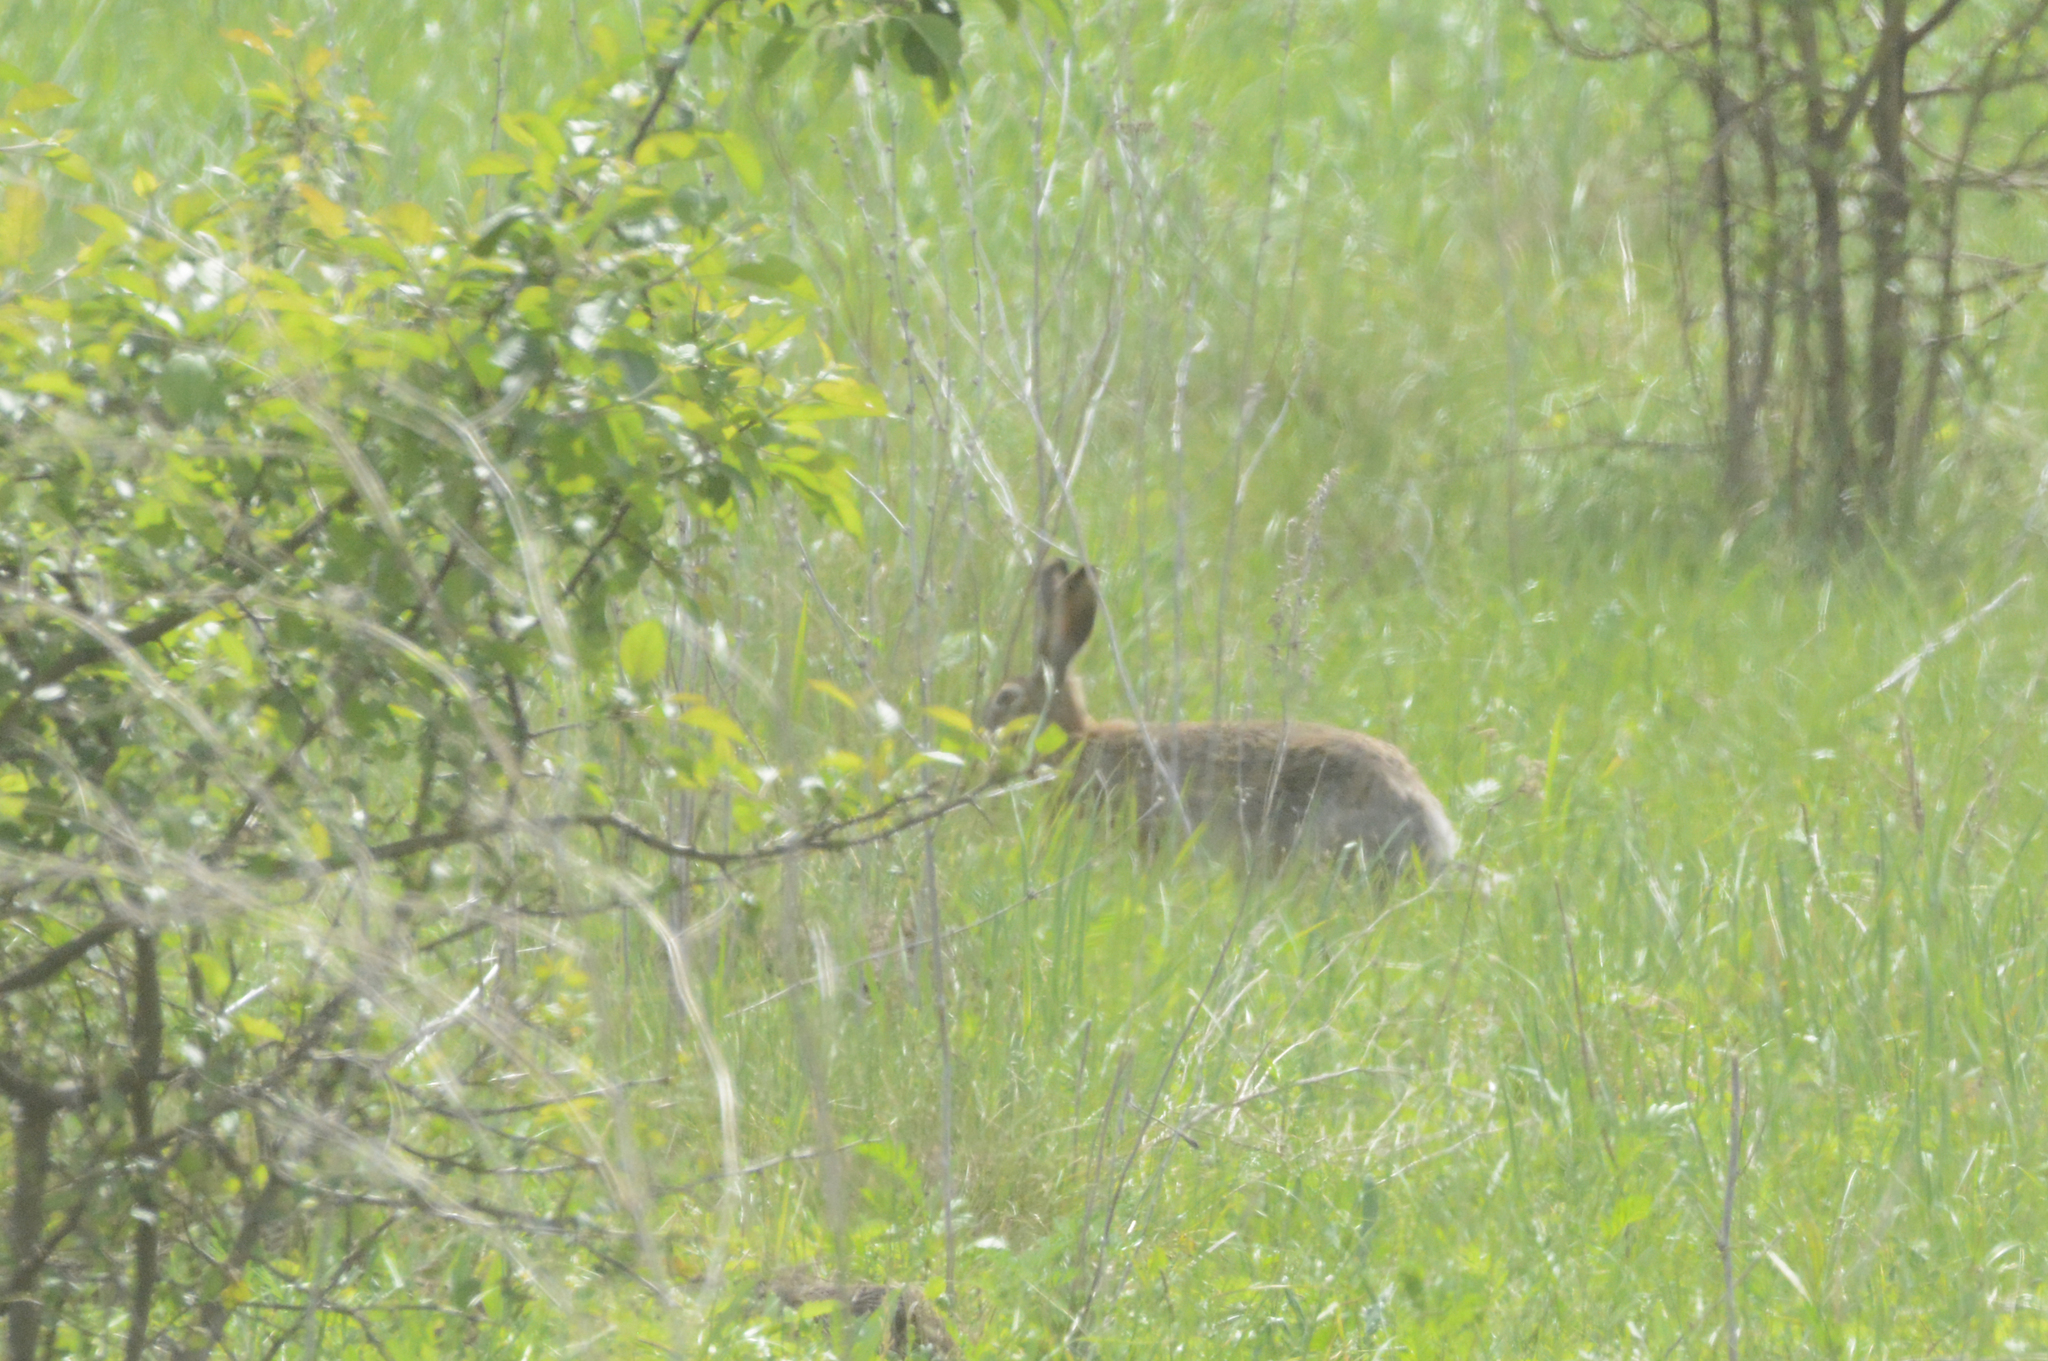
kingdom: Animalia
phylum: Chordata
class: Mammalia
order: Lagomorpha
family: Leporidae
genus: Lepus
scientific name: Lepus europaeus
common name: European hare
